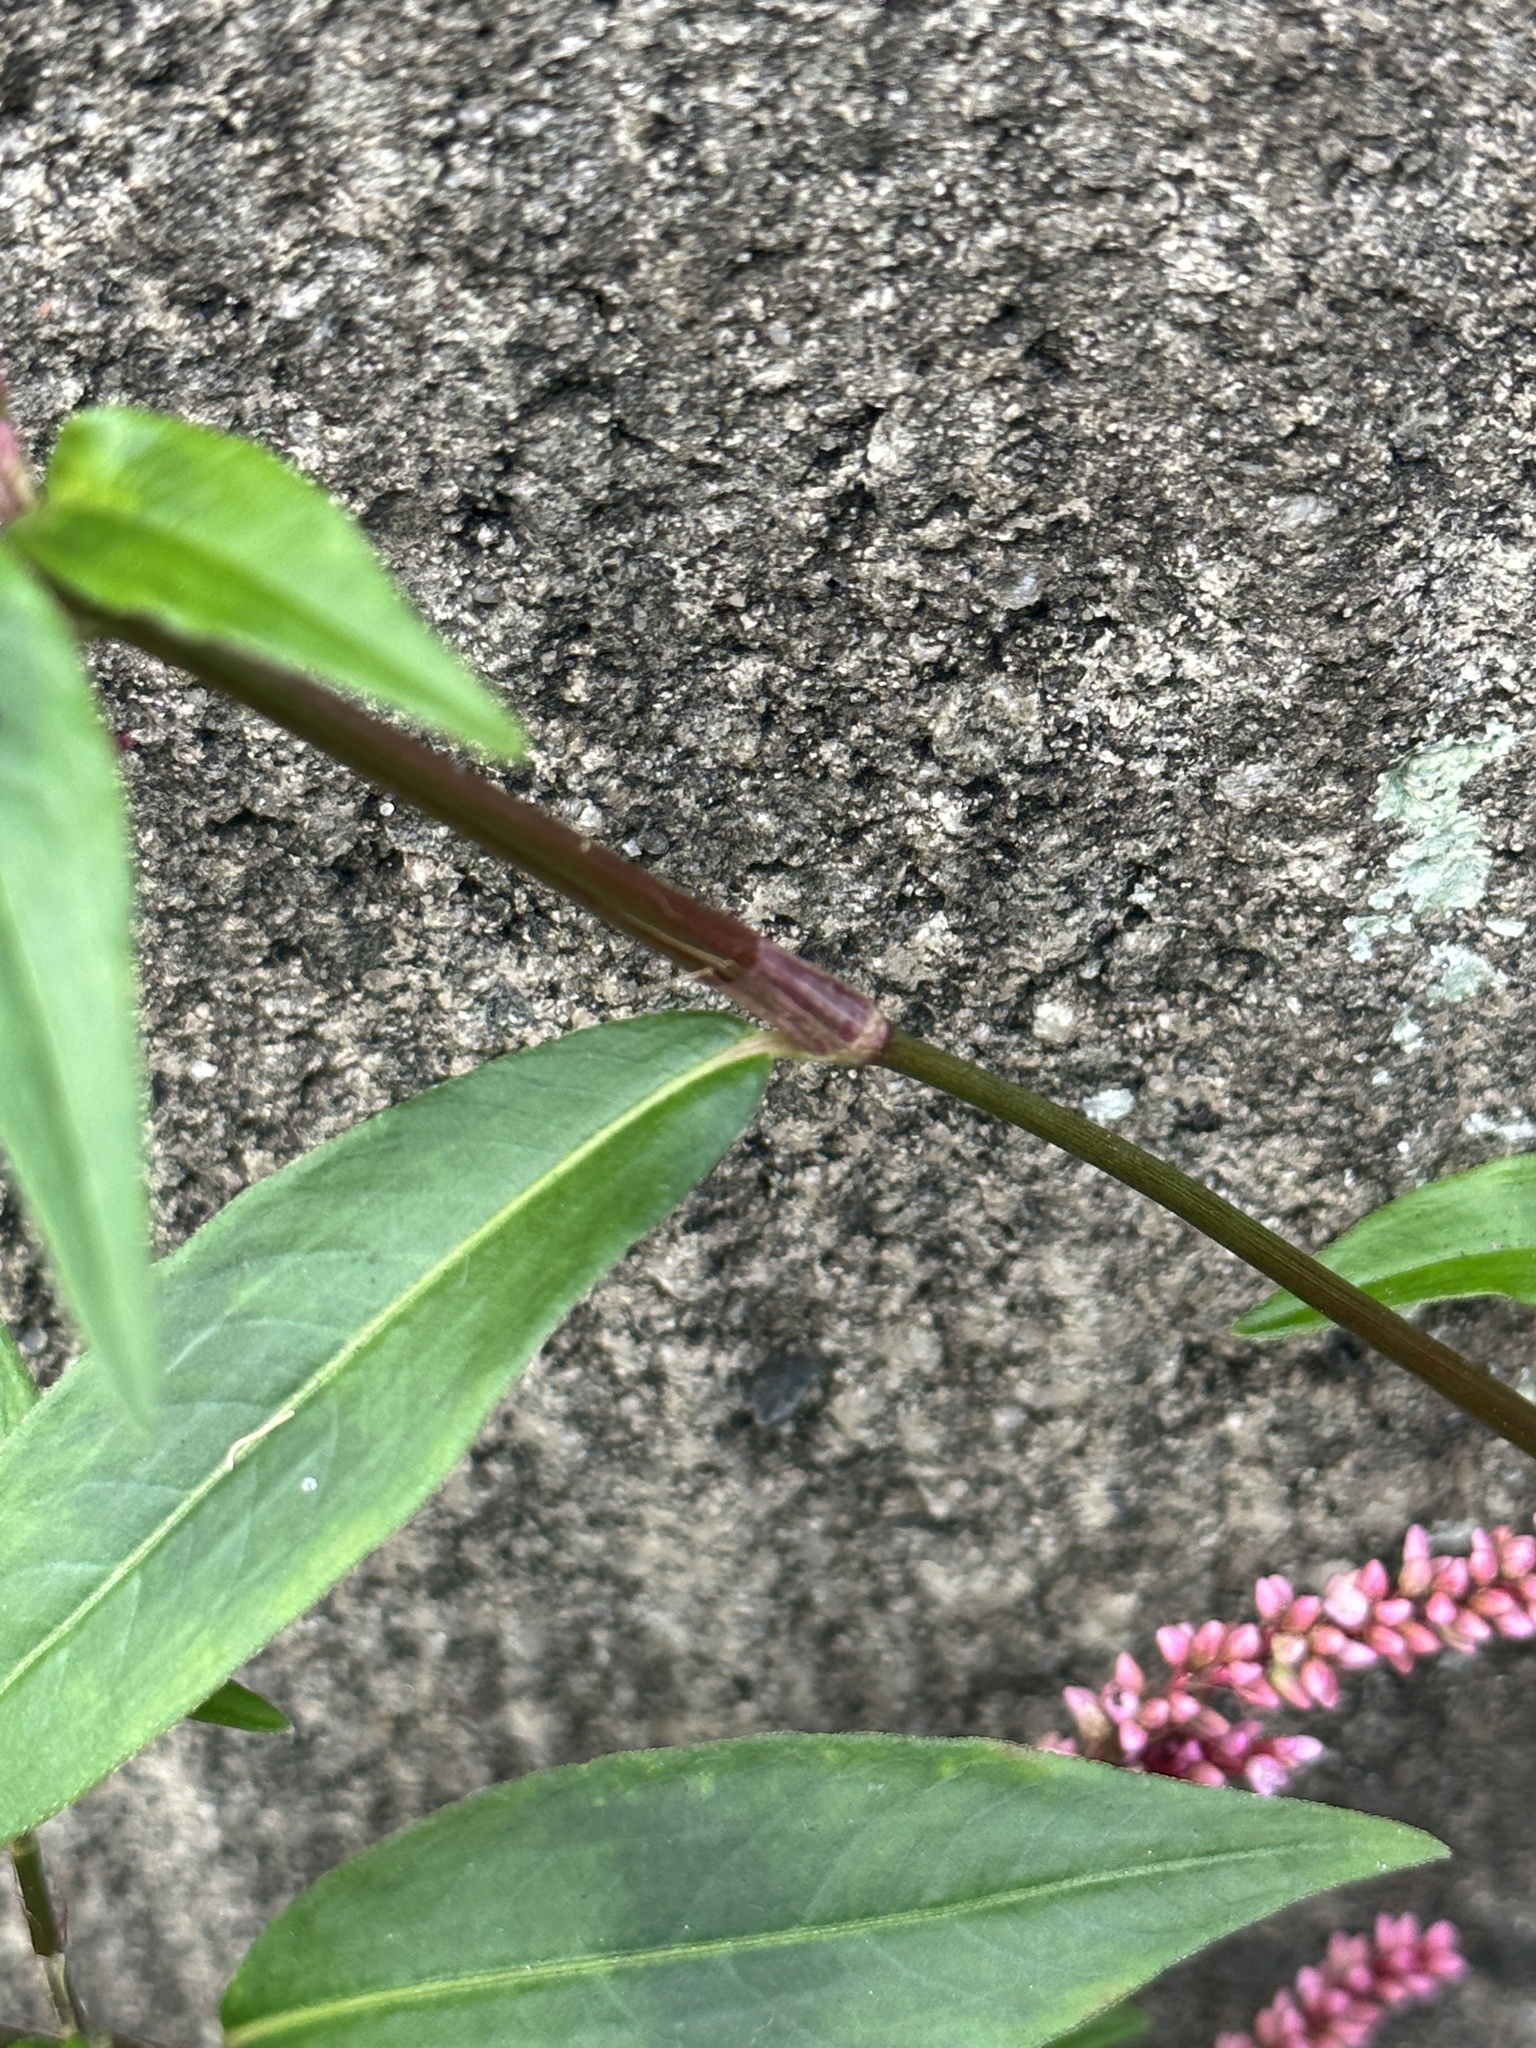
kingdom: Plantae
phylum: Tracheophyta
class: Magnoliopsida
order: Caryophyllales
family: Polygonaceae
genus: Persicaria
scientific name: Persicaria longiseta
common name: Bristly lady's-thumb
